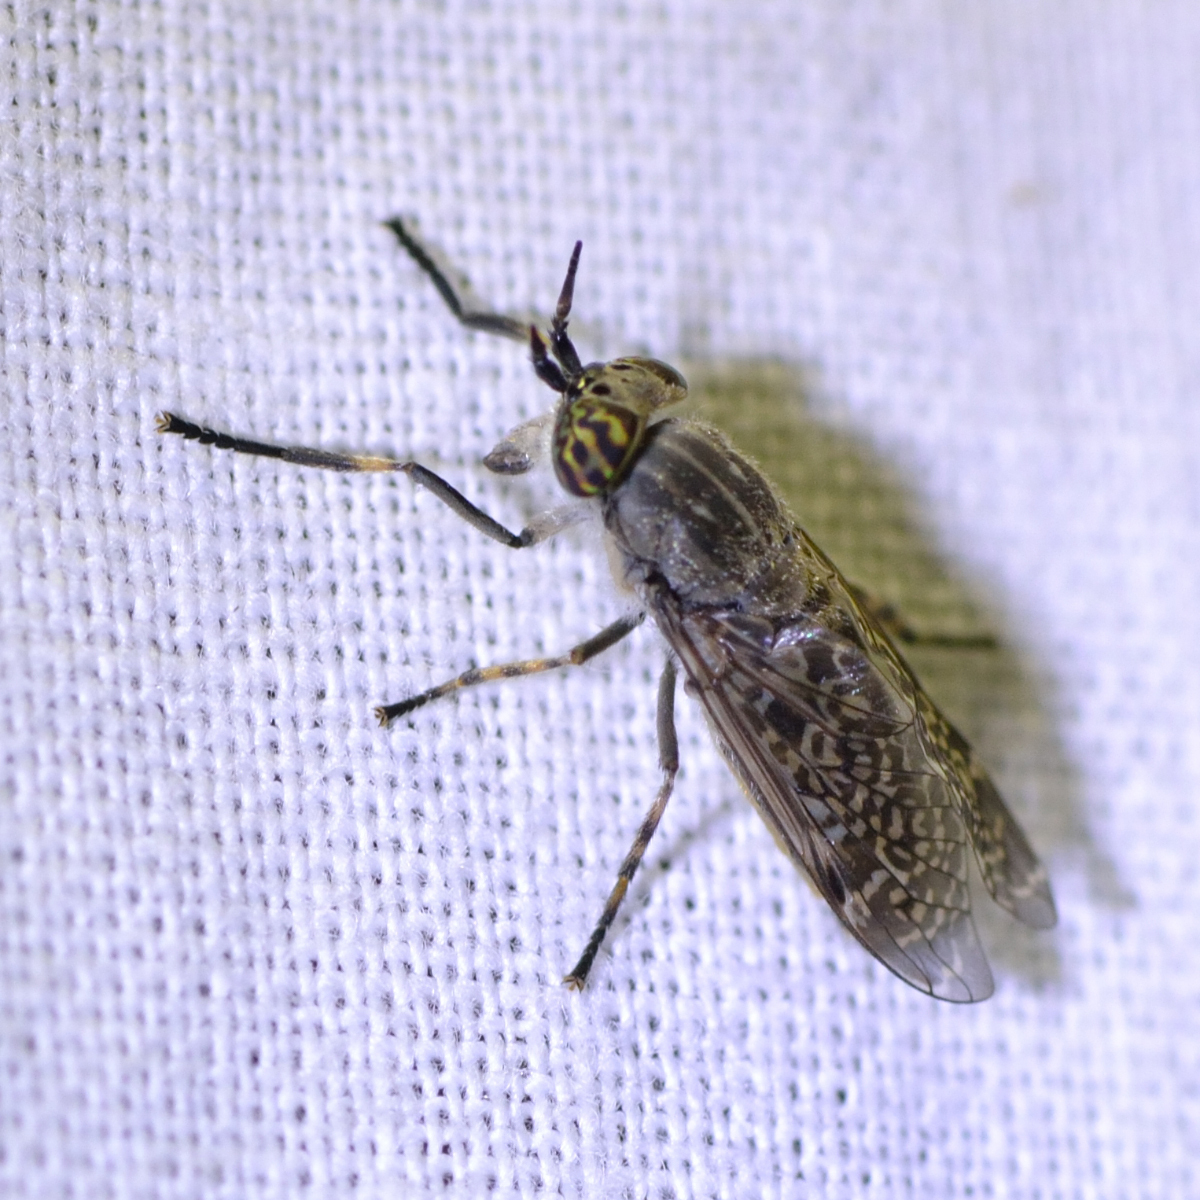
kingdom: Animalia
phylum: Arthropoda
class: Insecta
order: Diptera
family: Tabanidae
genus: Haematopota
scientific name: Haematopota pluvialis
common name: Common horse fly
